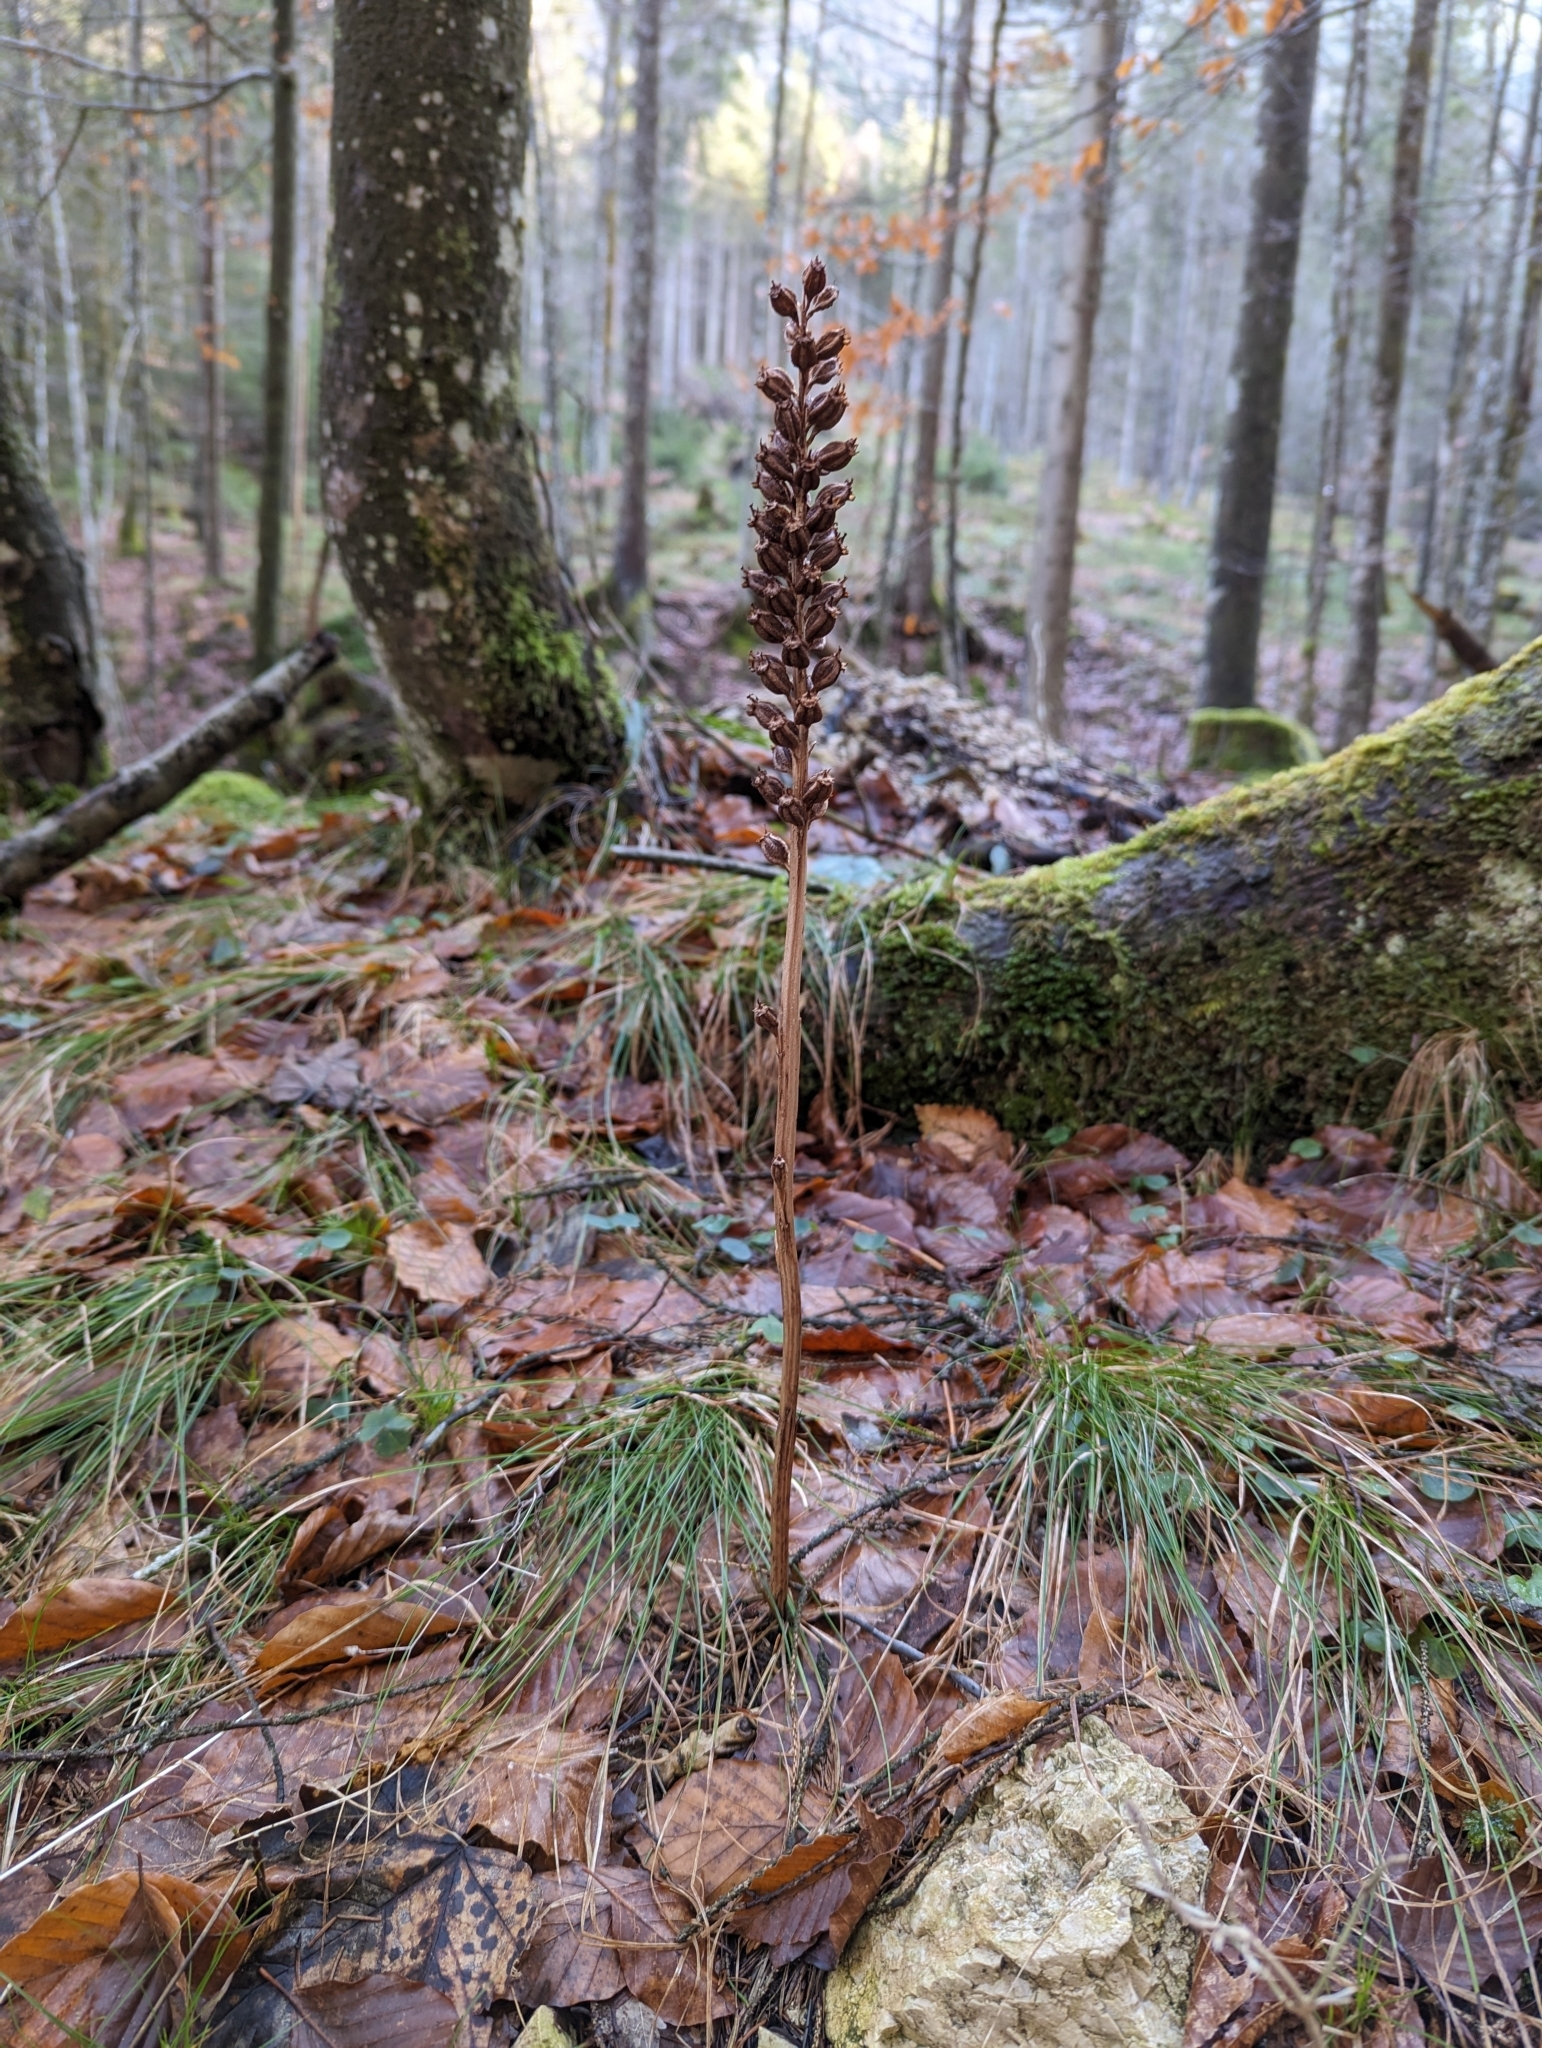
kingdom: Plantae
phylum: Tracheophyta
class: Liliopsida
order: Asparagales
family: Orchidaceae
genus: Neottia
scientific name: Neottia nidus-avis
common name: Bird's-nest orchid
